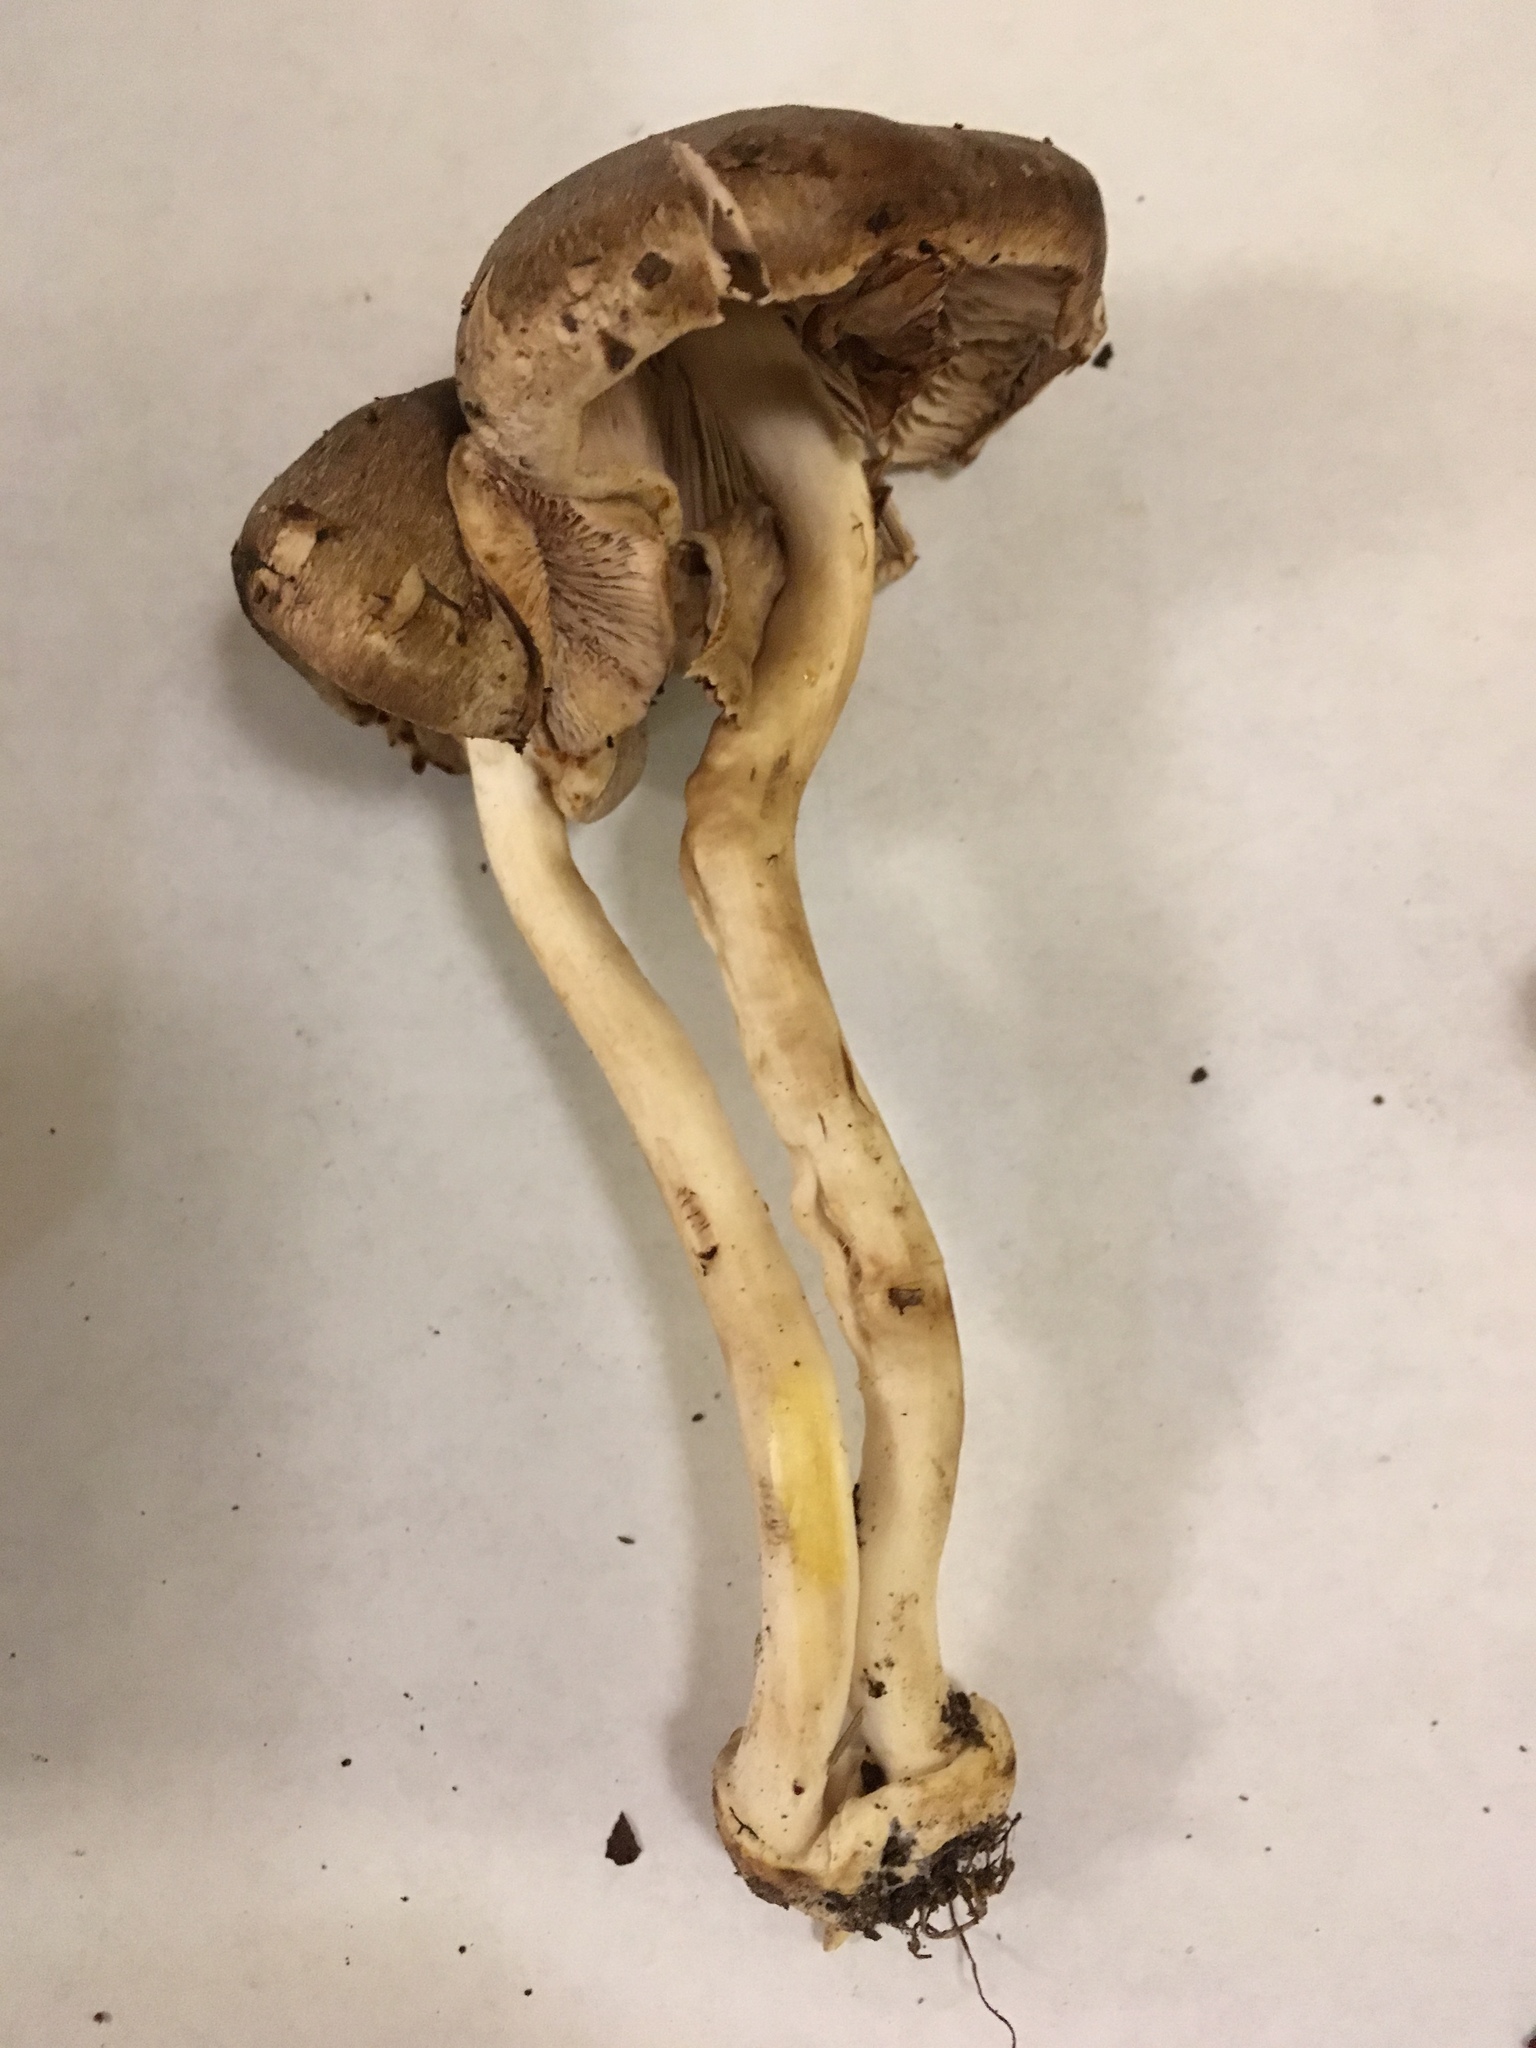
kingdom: Fungi
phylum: Basidiomycota
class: Agaricomycetes
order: Agaricales
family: Agaricaceae
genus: Agaricus
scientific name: Agaricus pocillator
